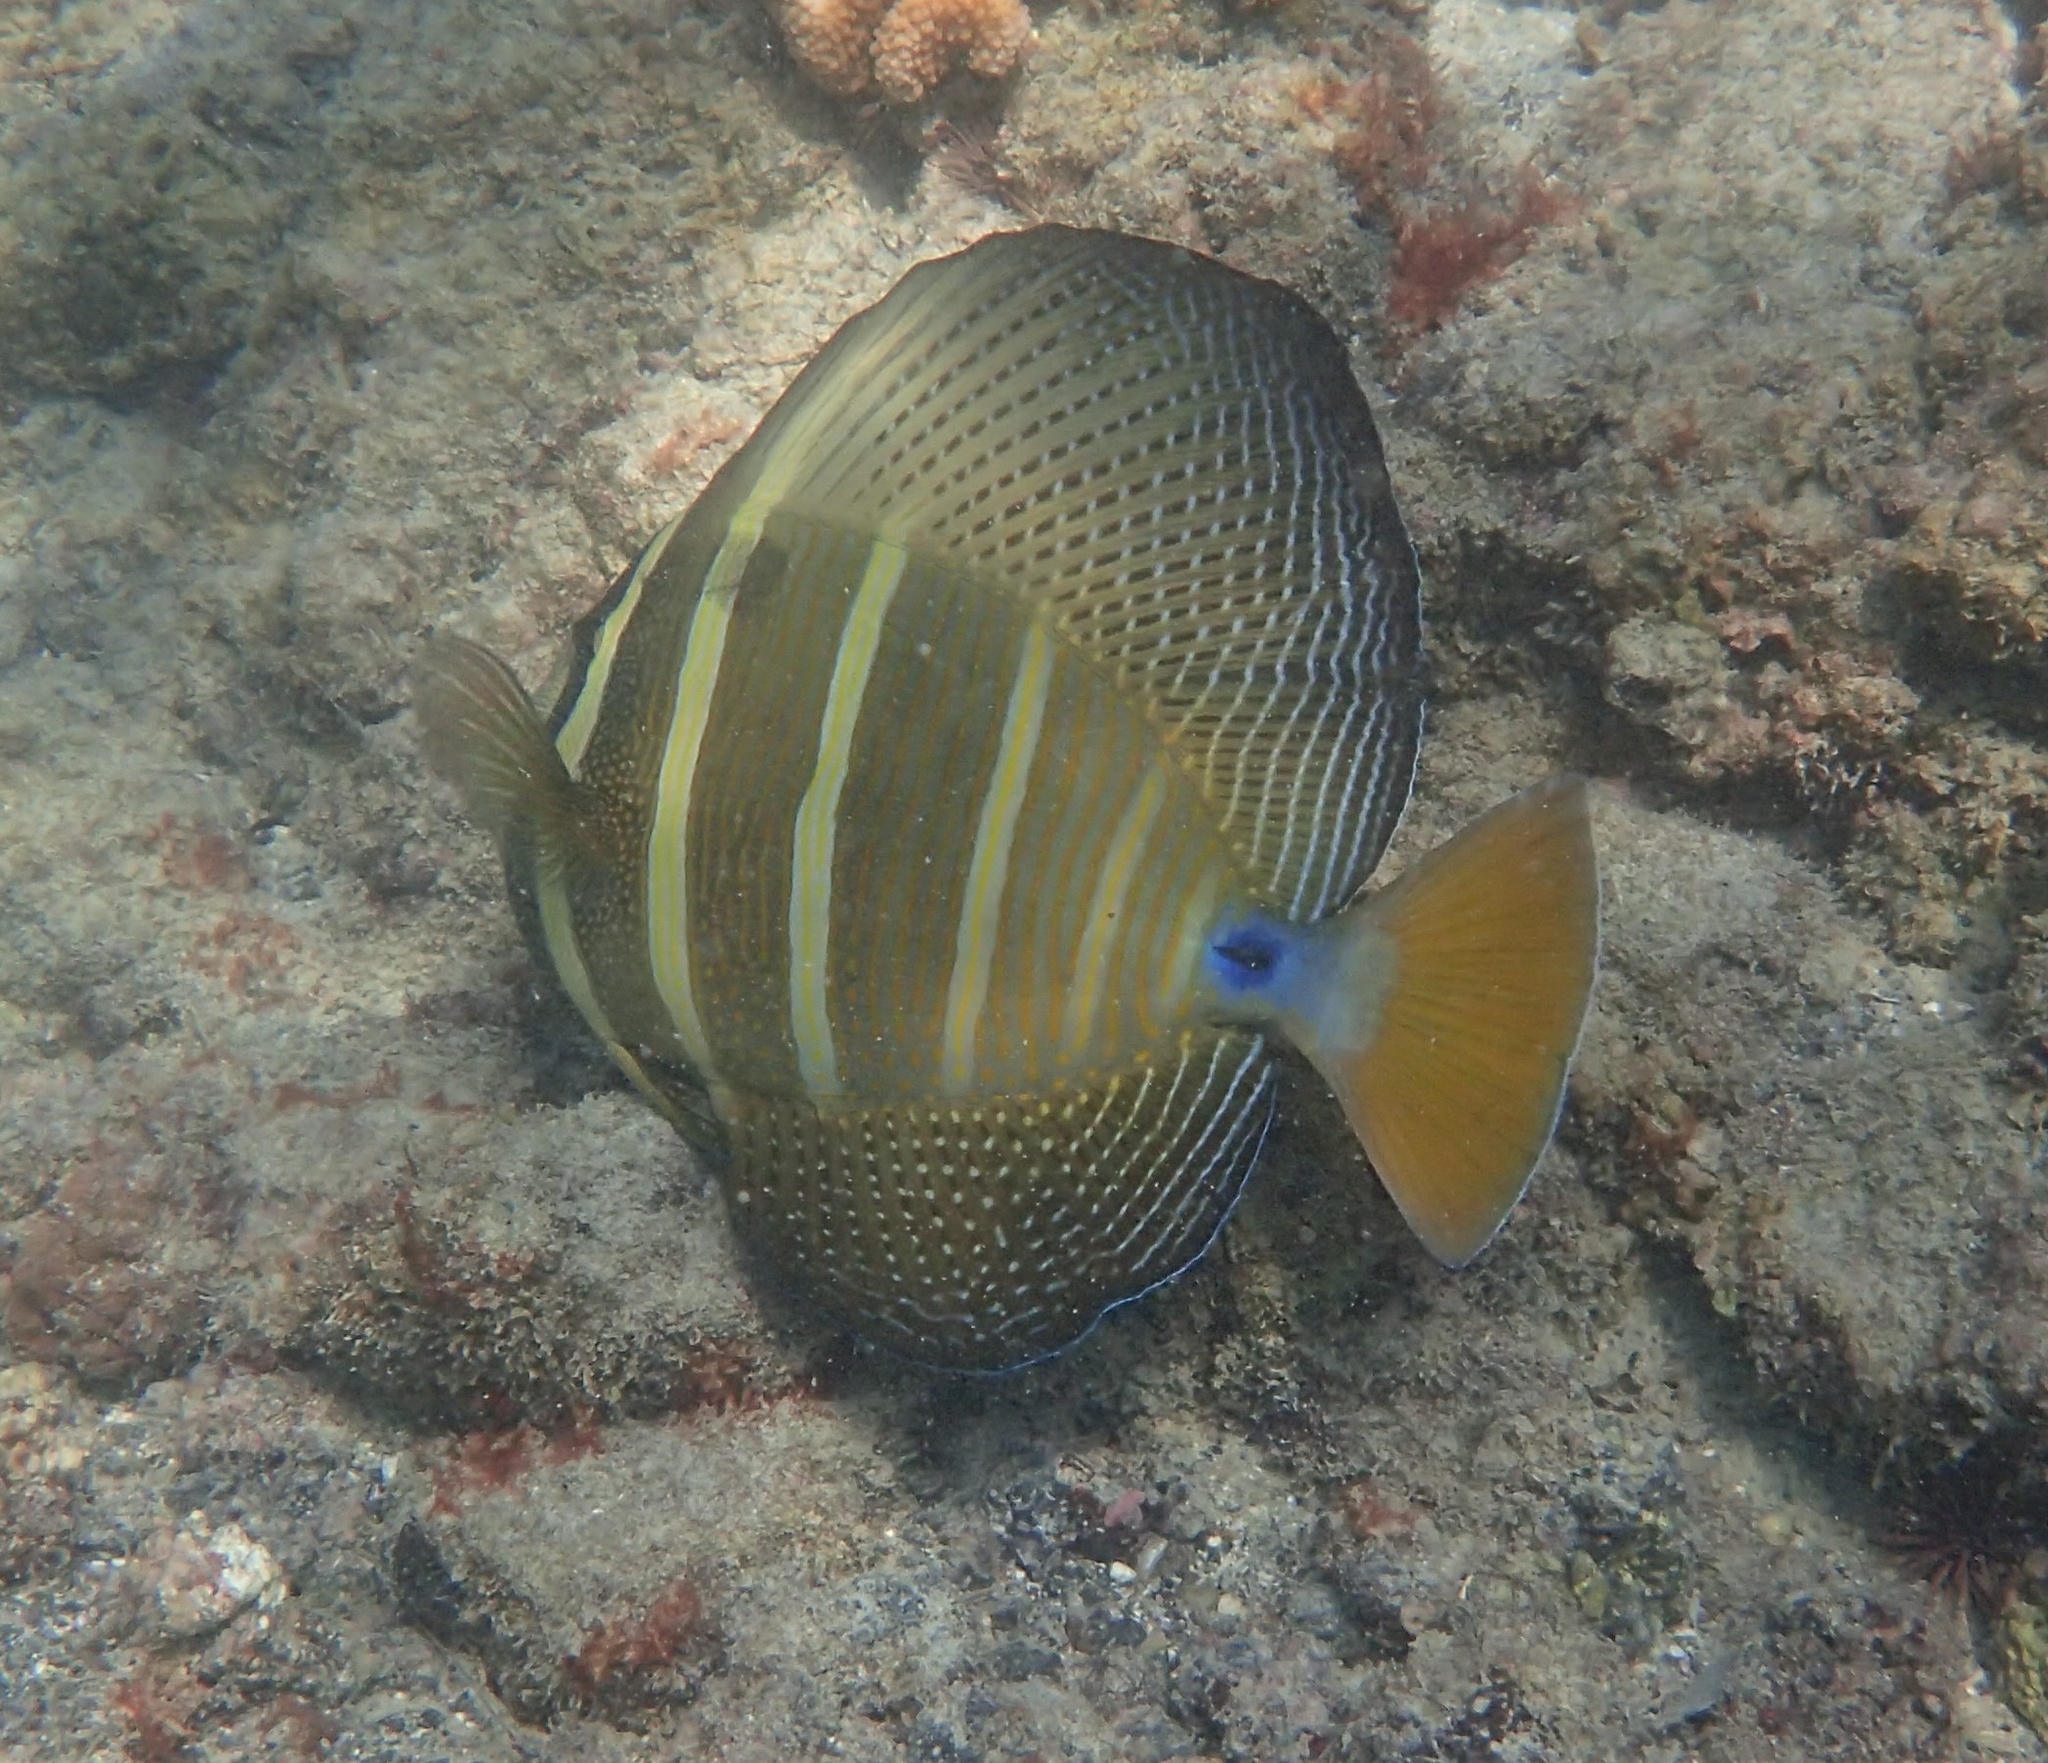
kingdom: Animalia
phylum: Chordata
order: Perciformes
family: Acanthuridae
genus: Zebrasoma
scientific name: Zebrasoma veliferum
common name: Sailfin surgeonfish
